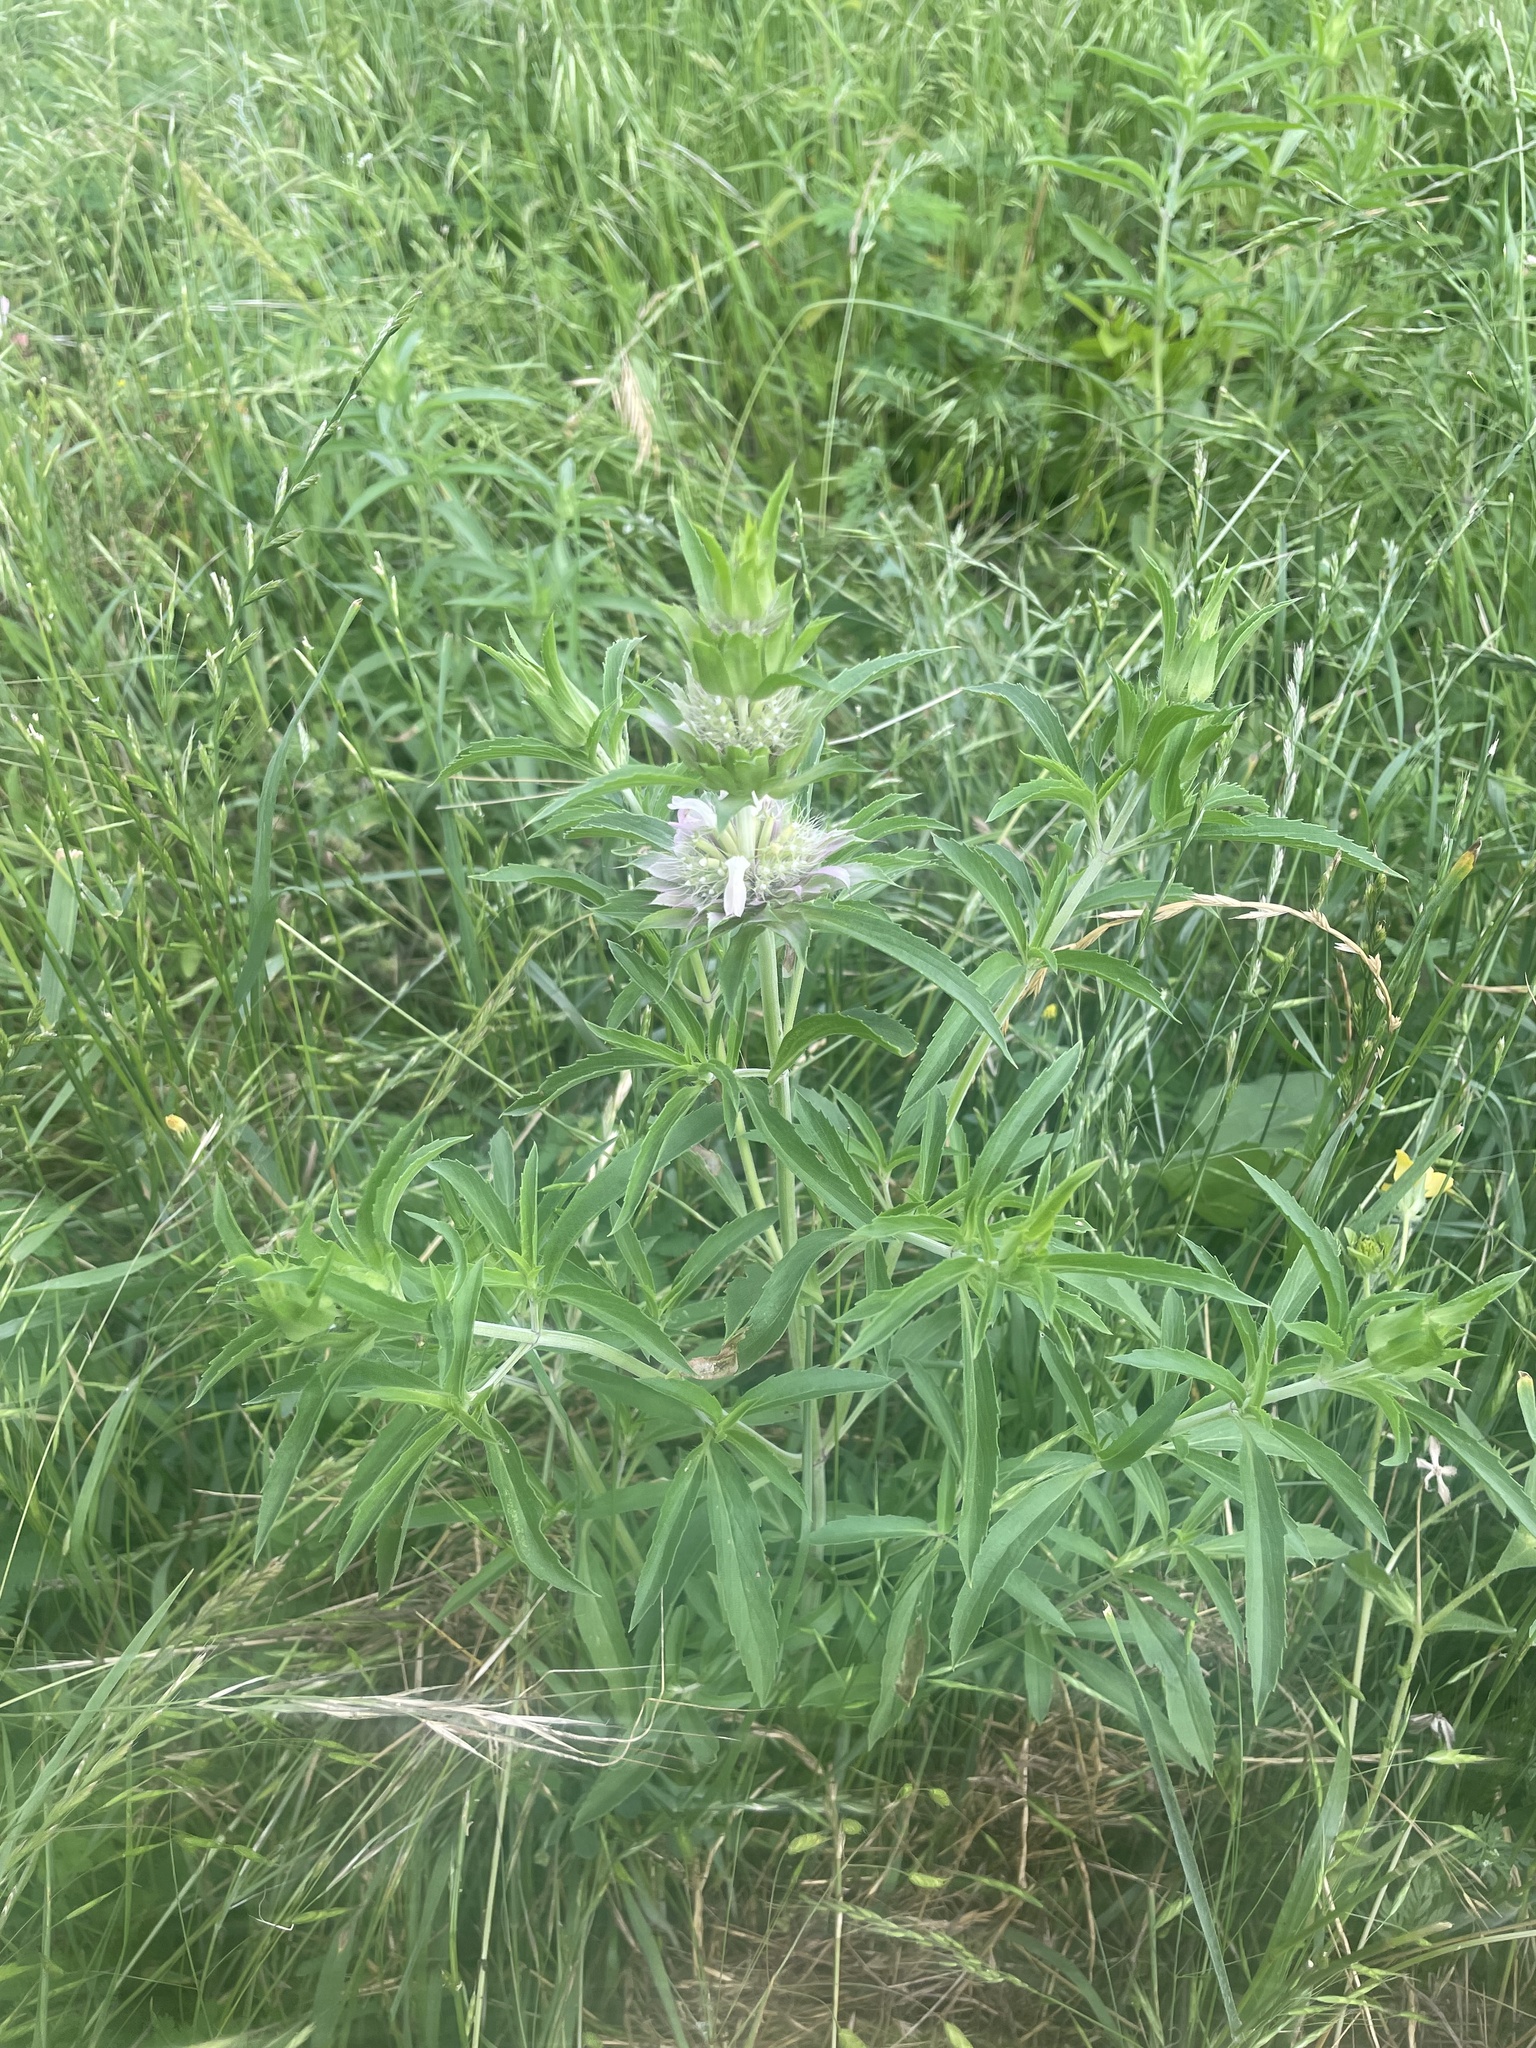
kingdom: Plantae
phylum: Tracheophyta
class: Magnoliopsida
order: Lamiales
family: Lamiaceae
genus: Monarda
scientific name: Monarda citriodora
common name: Lemon beebalm
